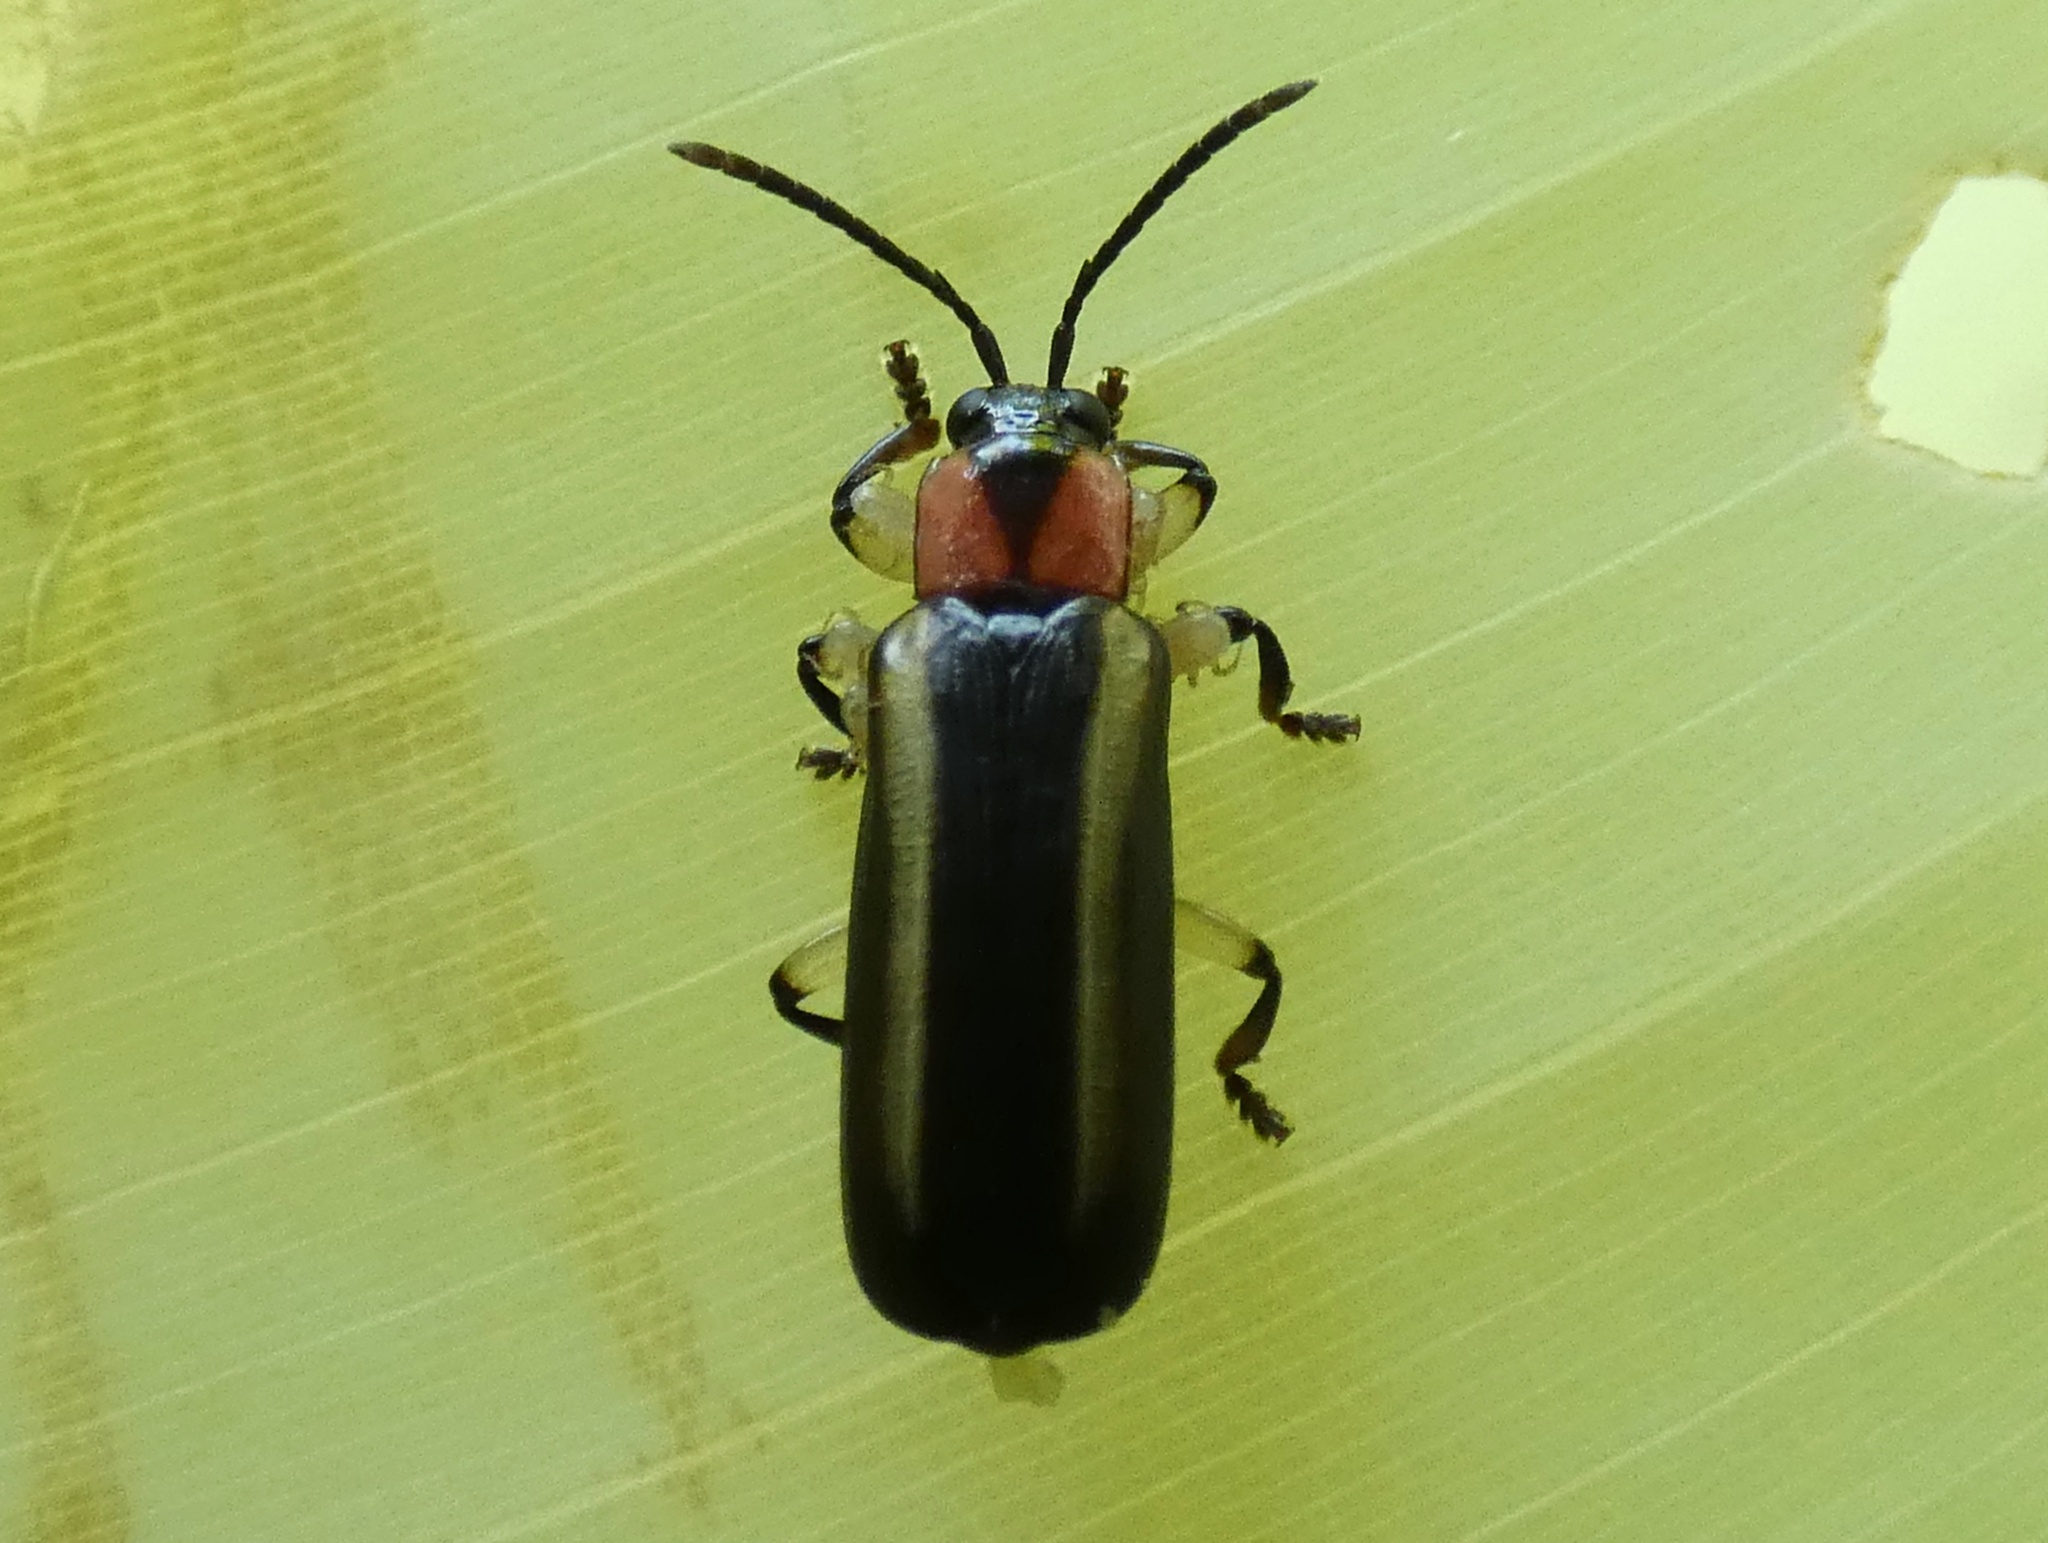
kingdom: Animalia
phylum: Arthropoda
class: Insecta
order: Coleoptera
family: Chrysomelidae
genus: Cephaloleia
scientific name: Cephaloleia quadrilineata
